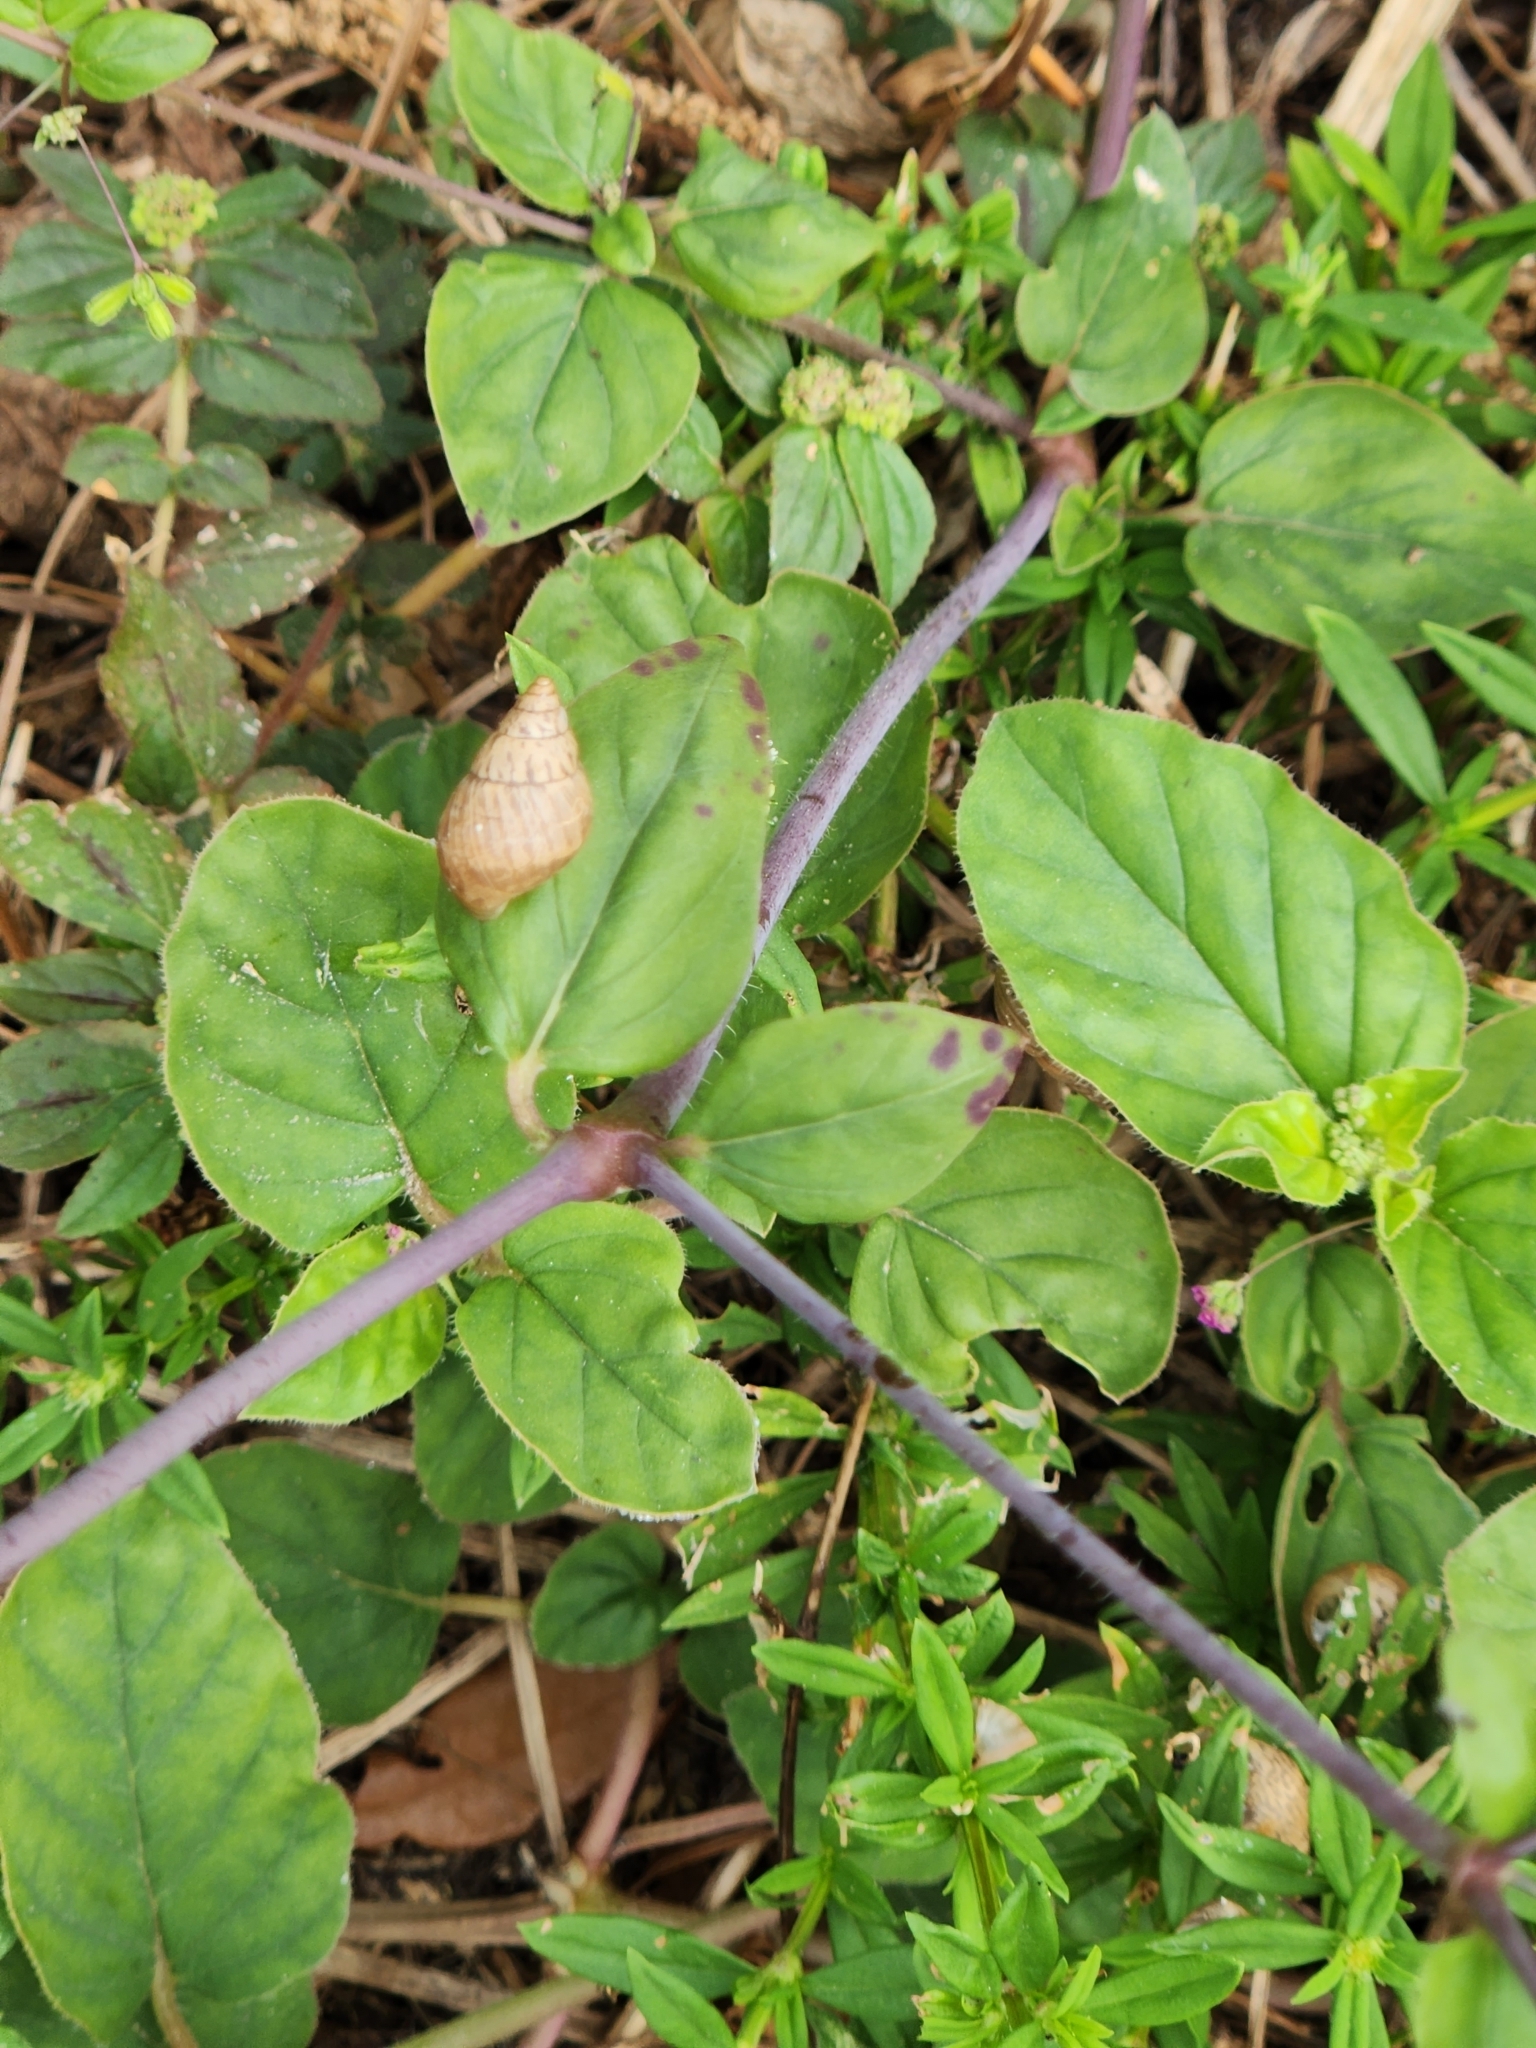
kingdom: Plantae
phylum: Tracheophyta
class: Magnoliopsida
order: Caryophyllales
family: Nyctaginaceae
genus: Boerhavia
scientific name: Boerhavia diffusa
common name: Red spiderling
